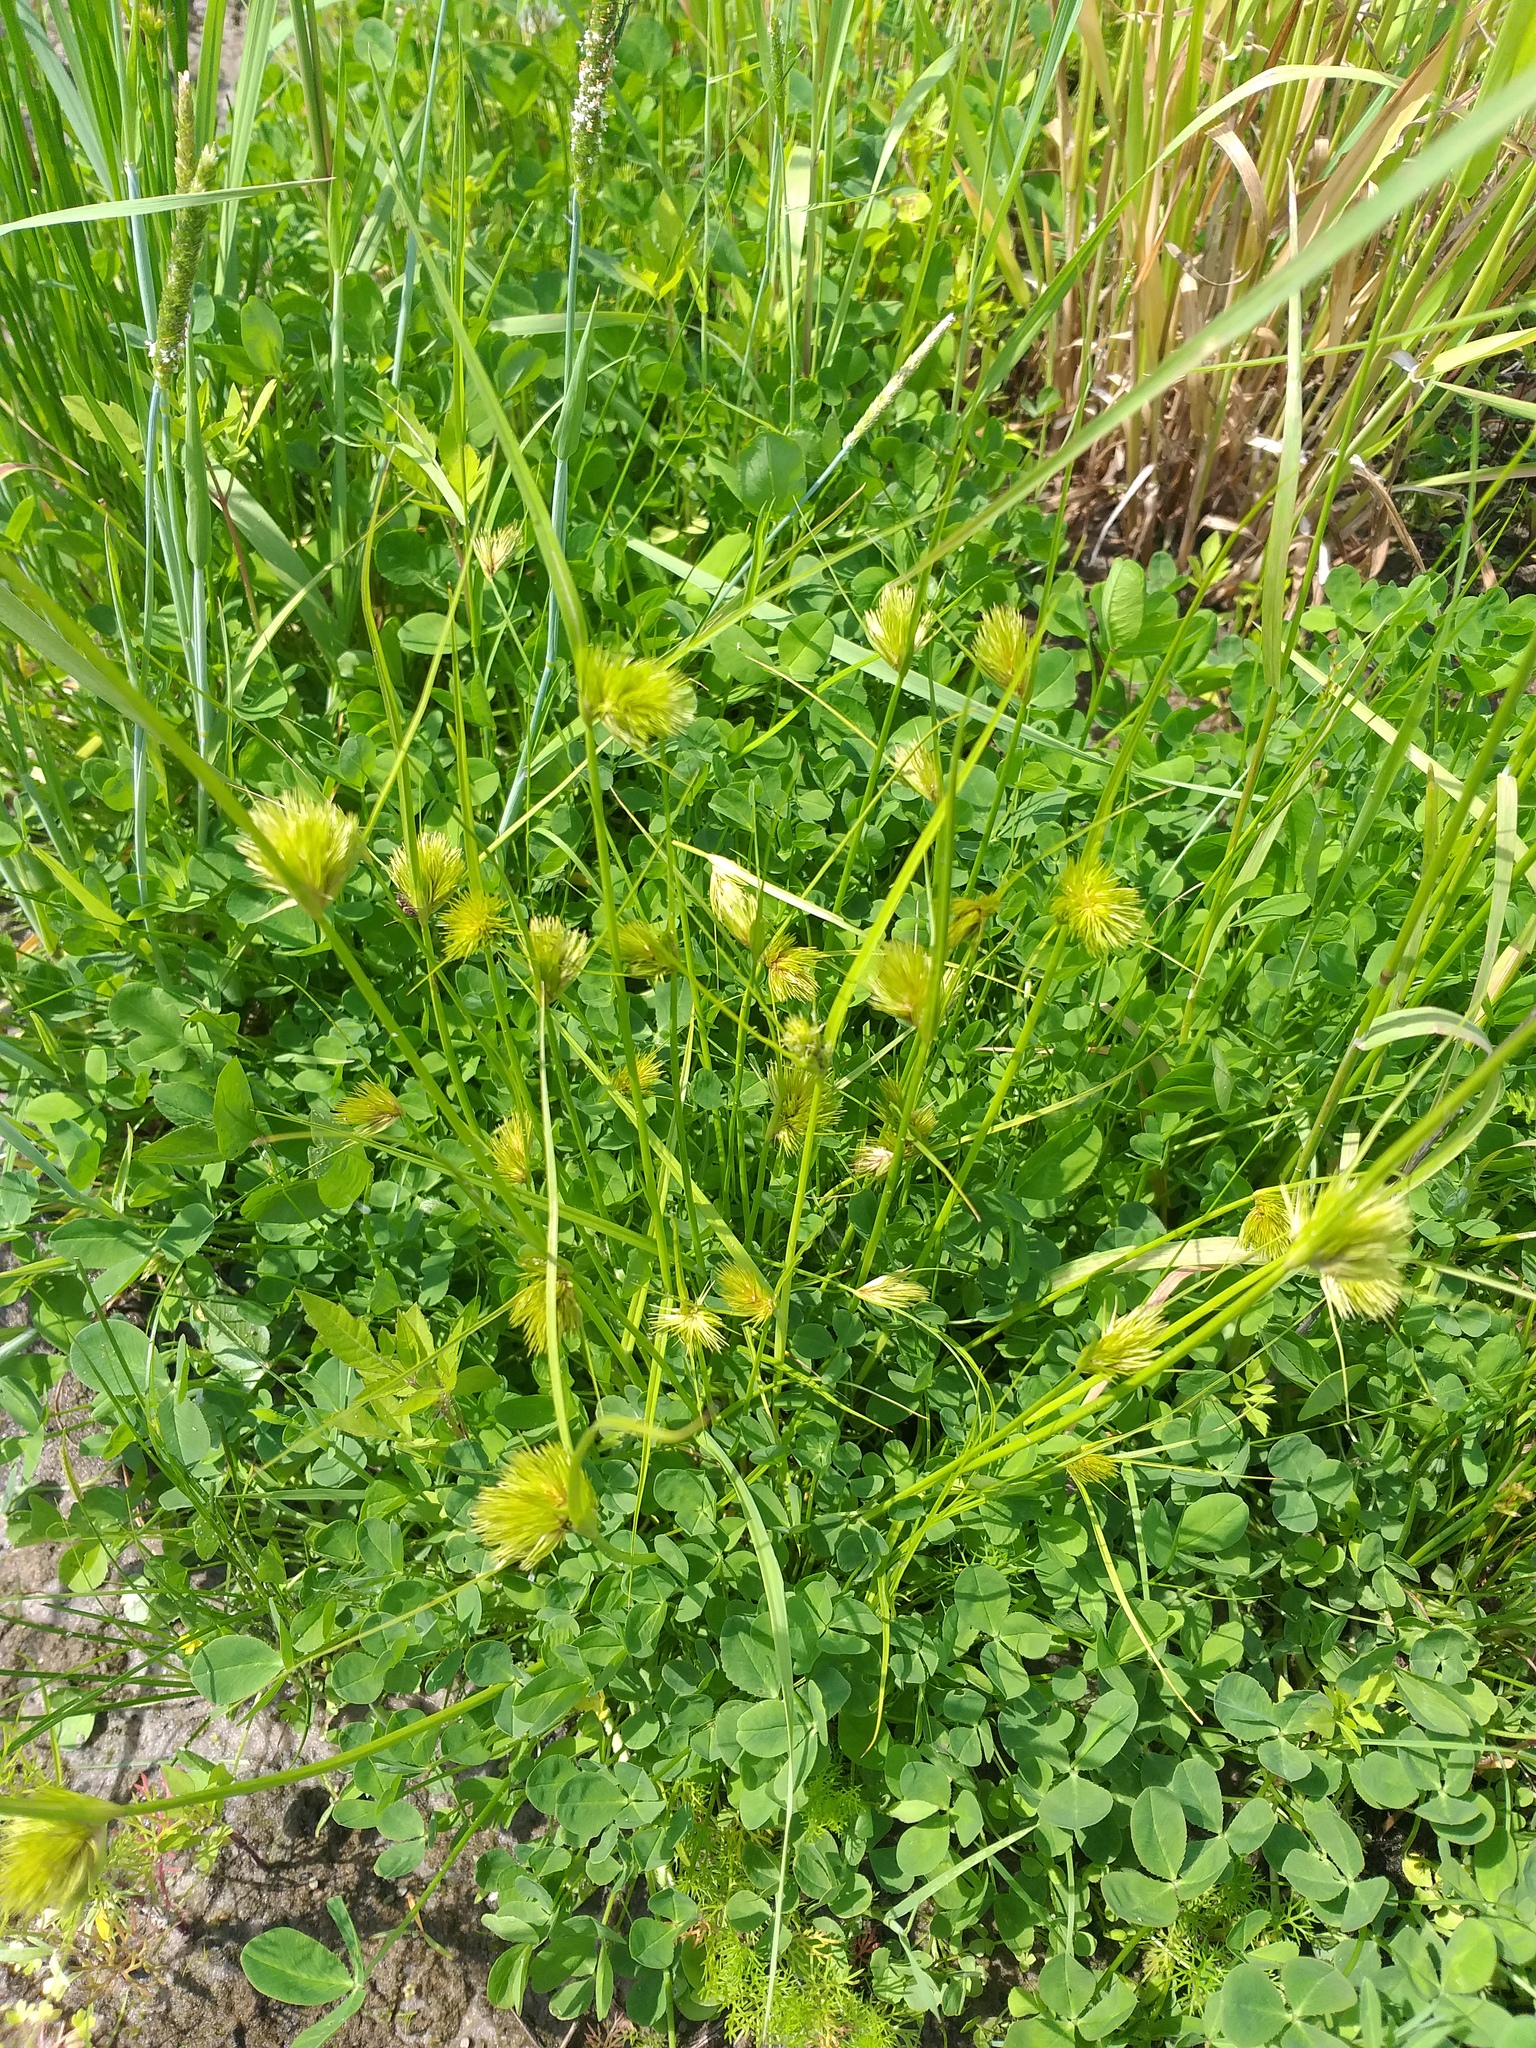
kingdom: Plantae
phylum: Tracheophyta
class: Liliopsida
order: Poales
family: Cyperaceae
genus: Carex
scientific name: Carex bohemica
